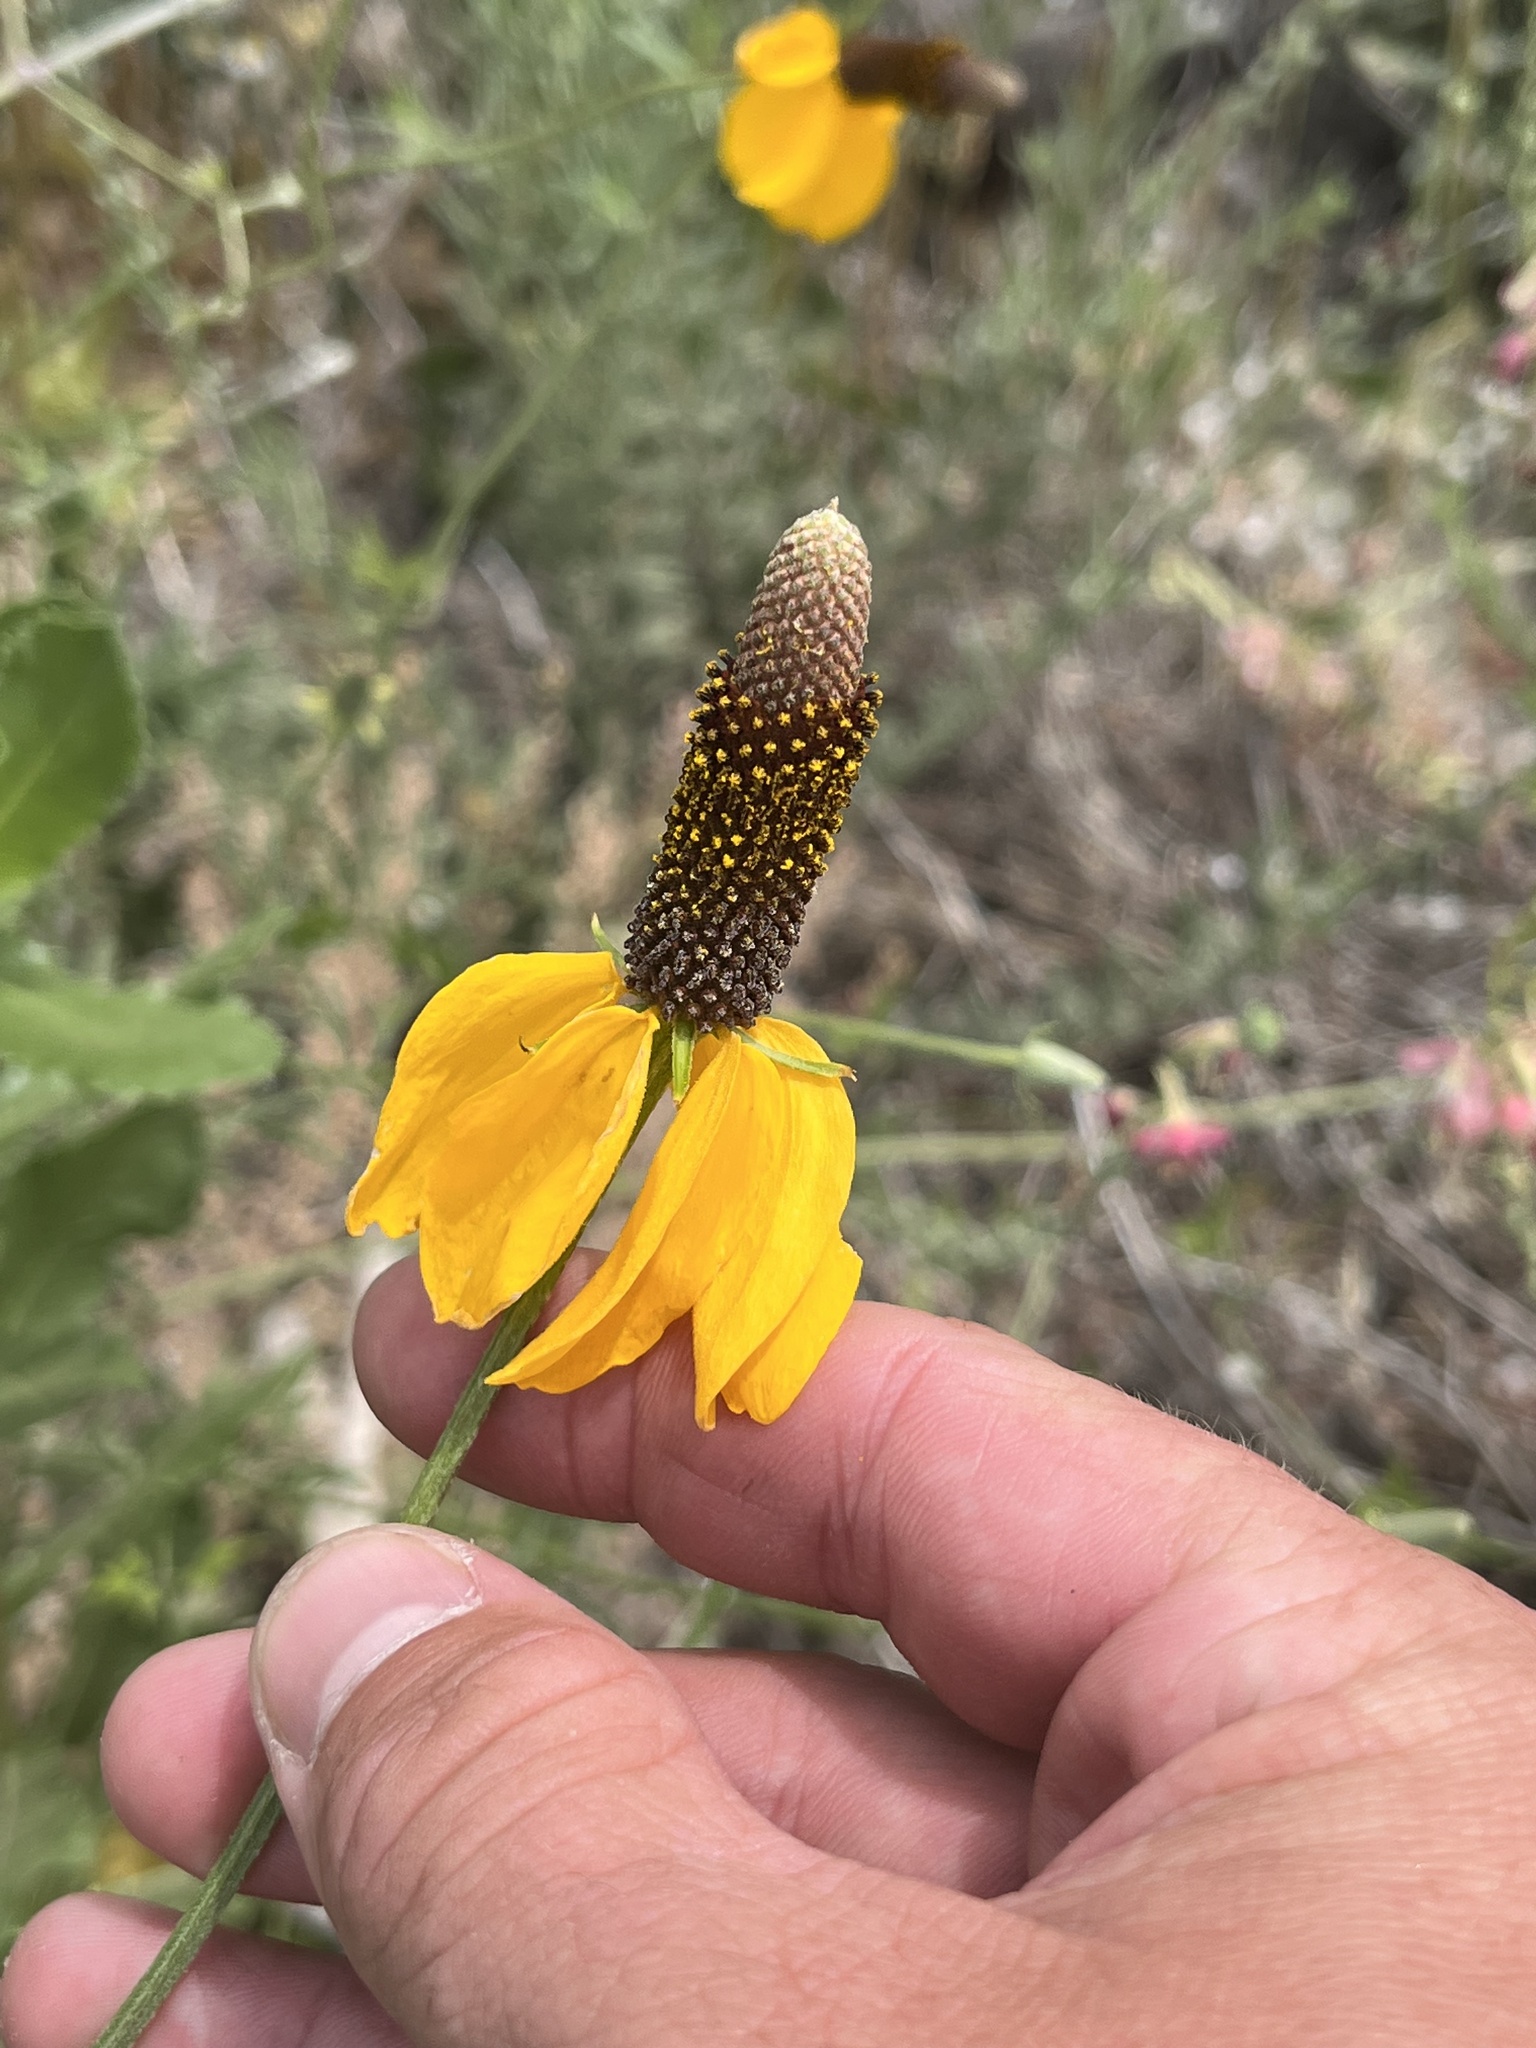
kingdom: Plantae
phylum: Tracheophyta
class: Magnoliopsida
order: Asterales
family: Asteraceae
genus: Ratibida
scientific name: Ratibida columnifera
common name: Prairie coneflower
